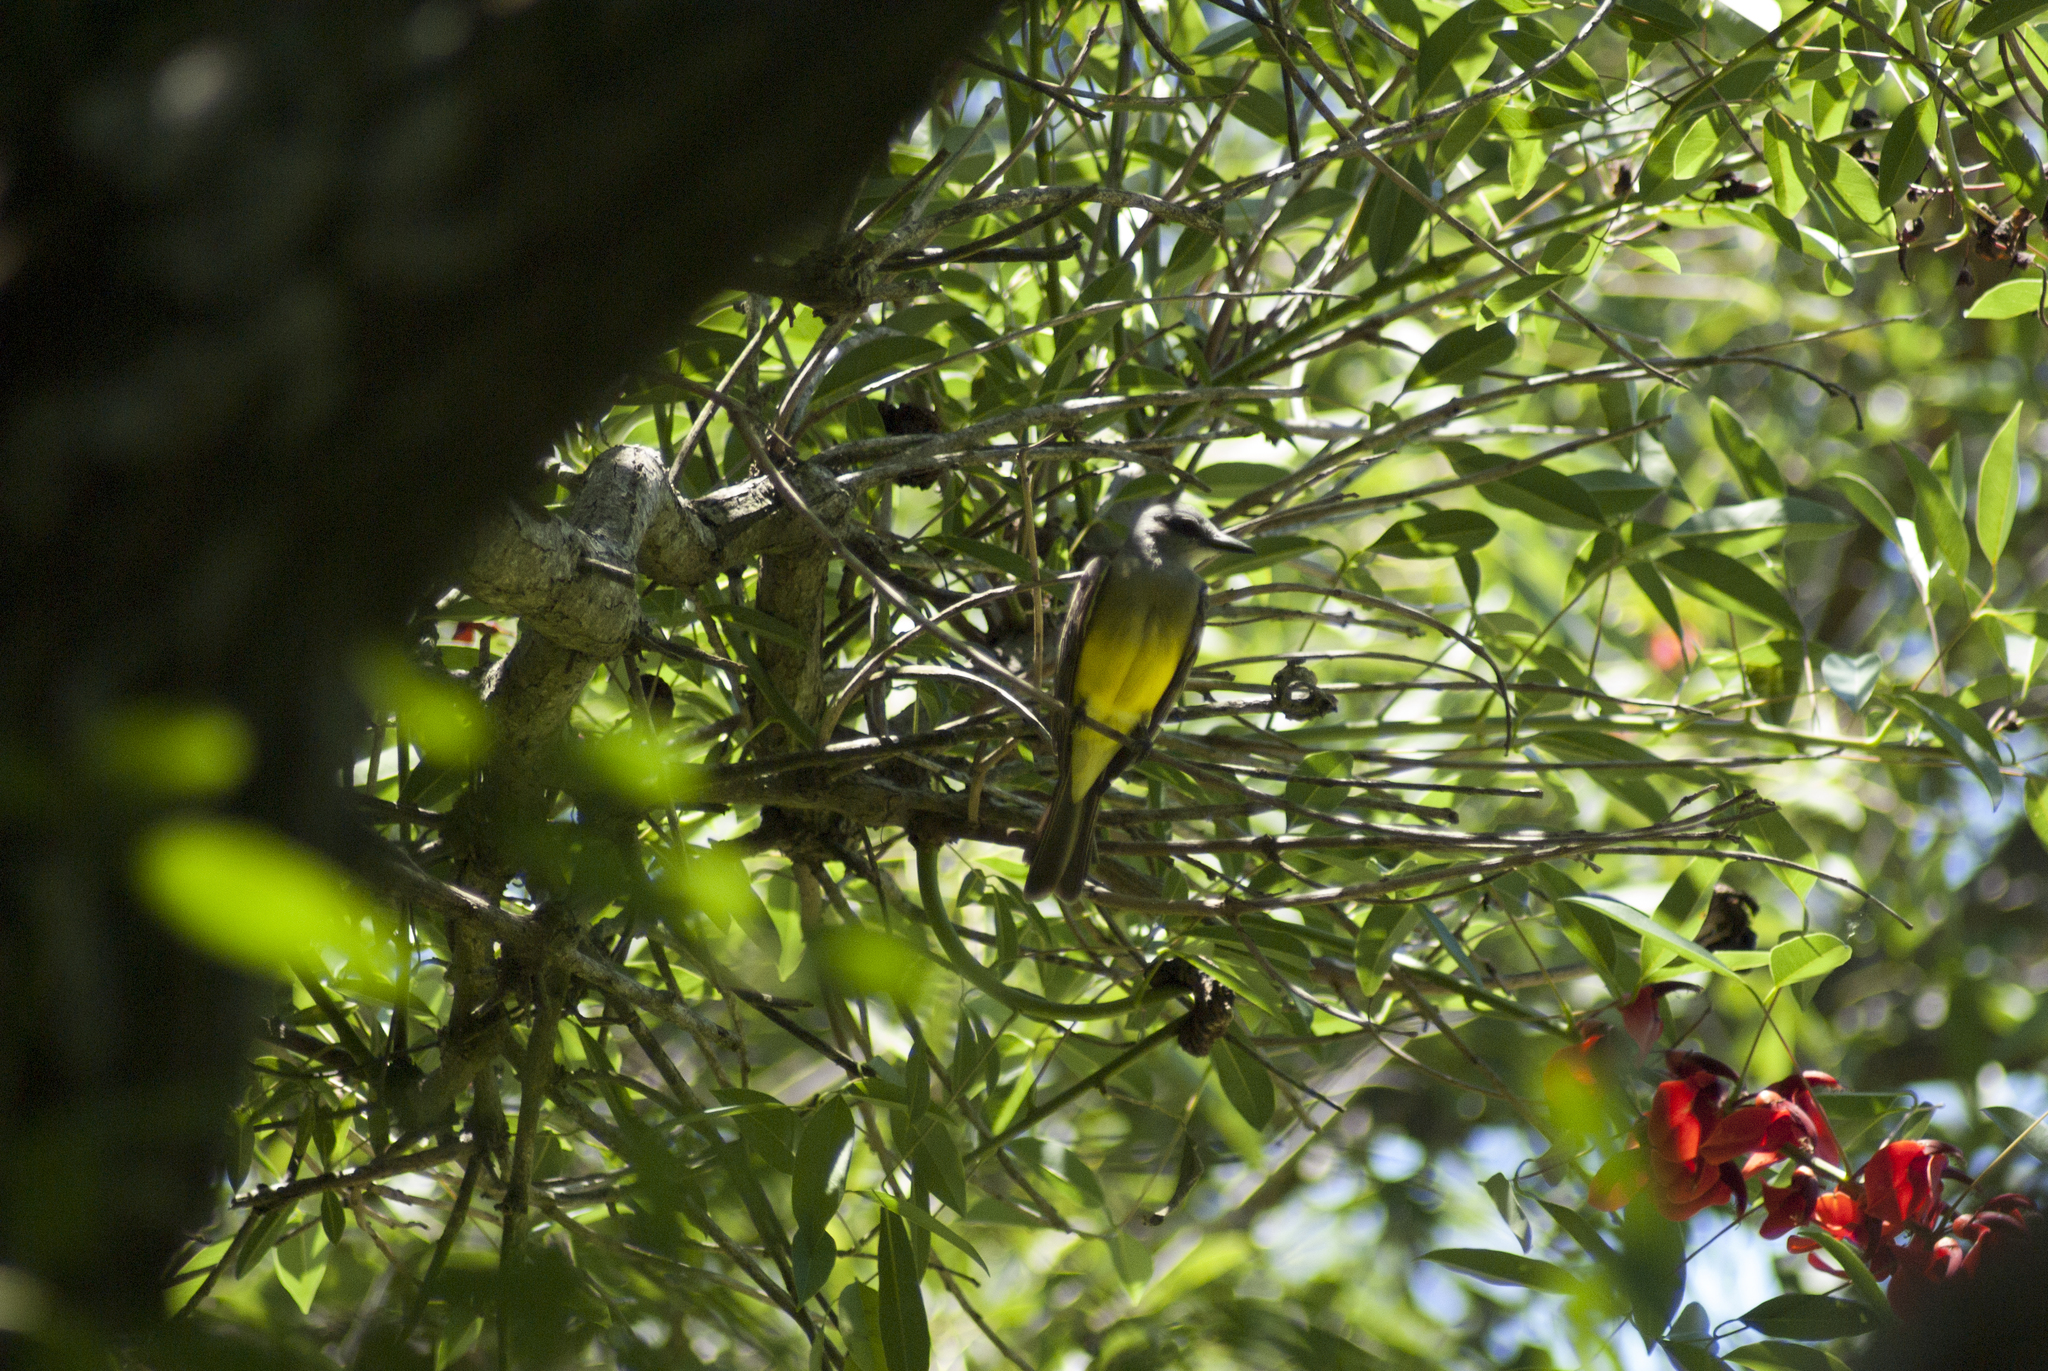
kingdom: Animalia
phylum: Chordata
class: Aves
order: Passeriformes
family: Tyrannidae
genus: Tyrannus
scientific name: Tyrannus melancholicus
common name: Tropical kingbird
